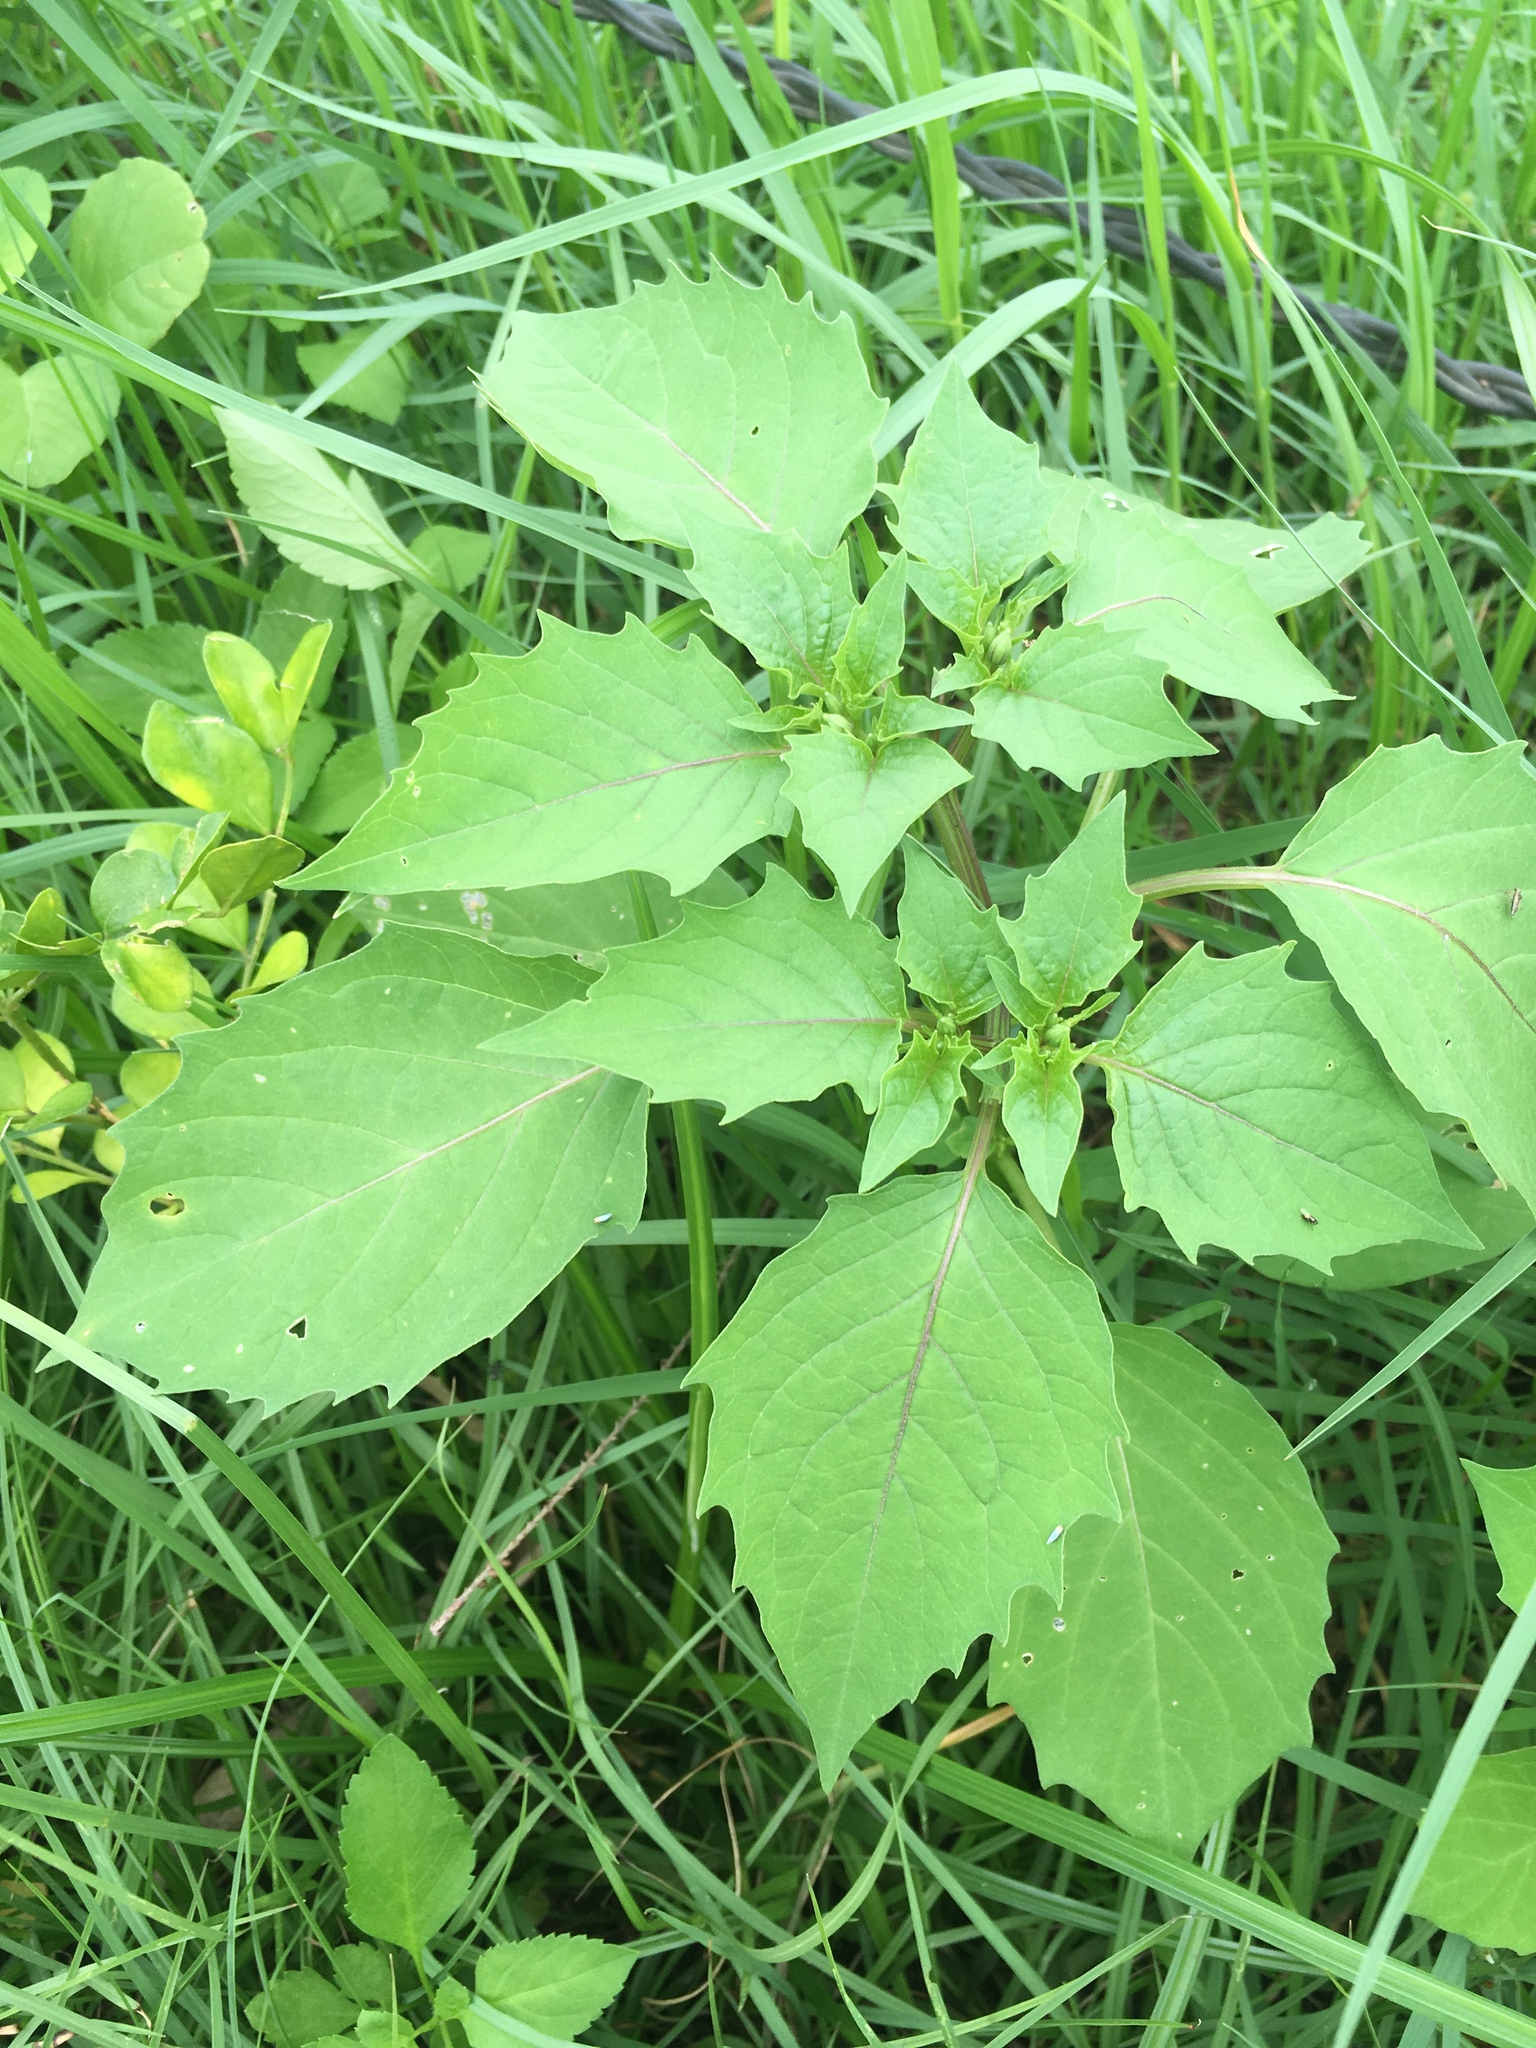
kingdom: Plantae
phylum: Tracheophyta
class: Magnoliopsida
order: Solanales
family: Solanaceae
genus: Physalis
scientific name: Physalis angulata
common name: Angular winter-cherry
